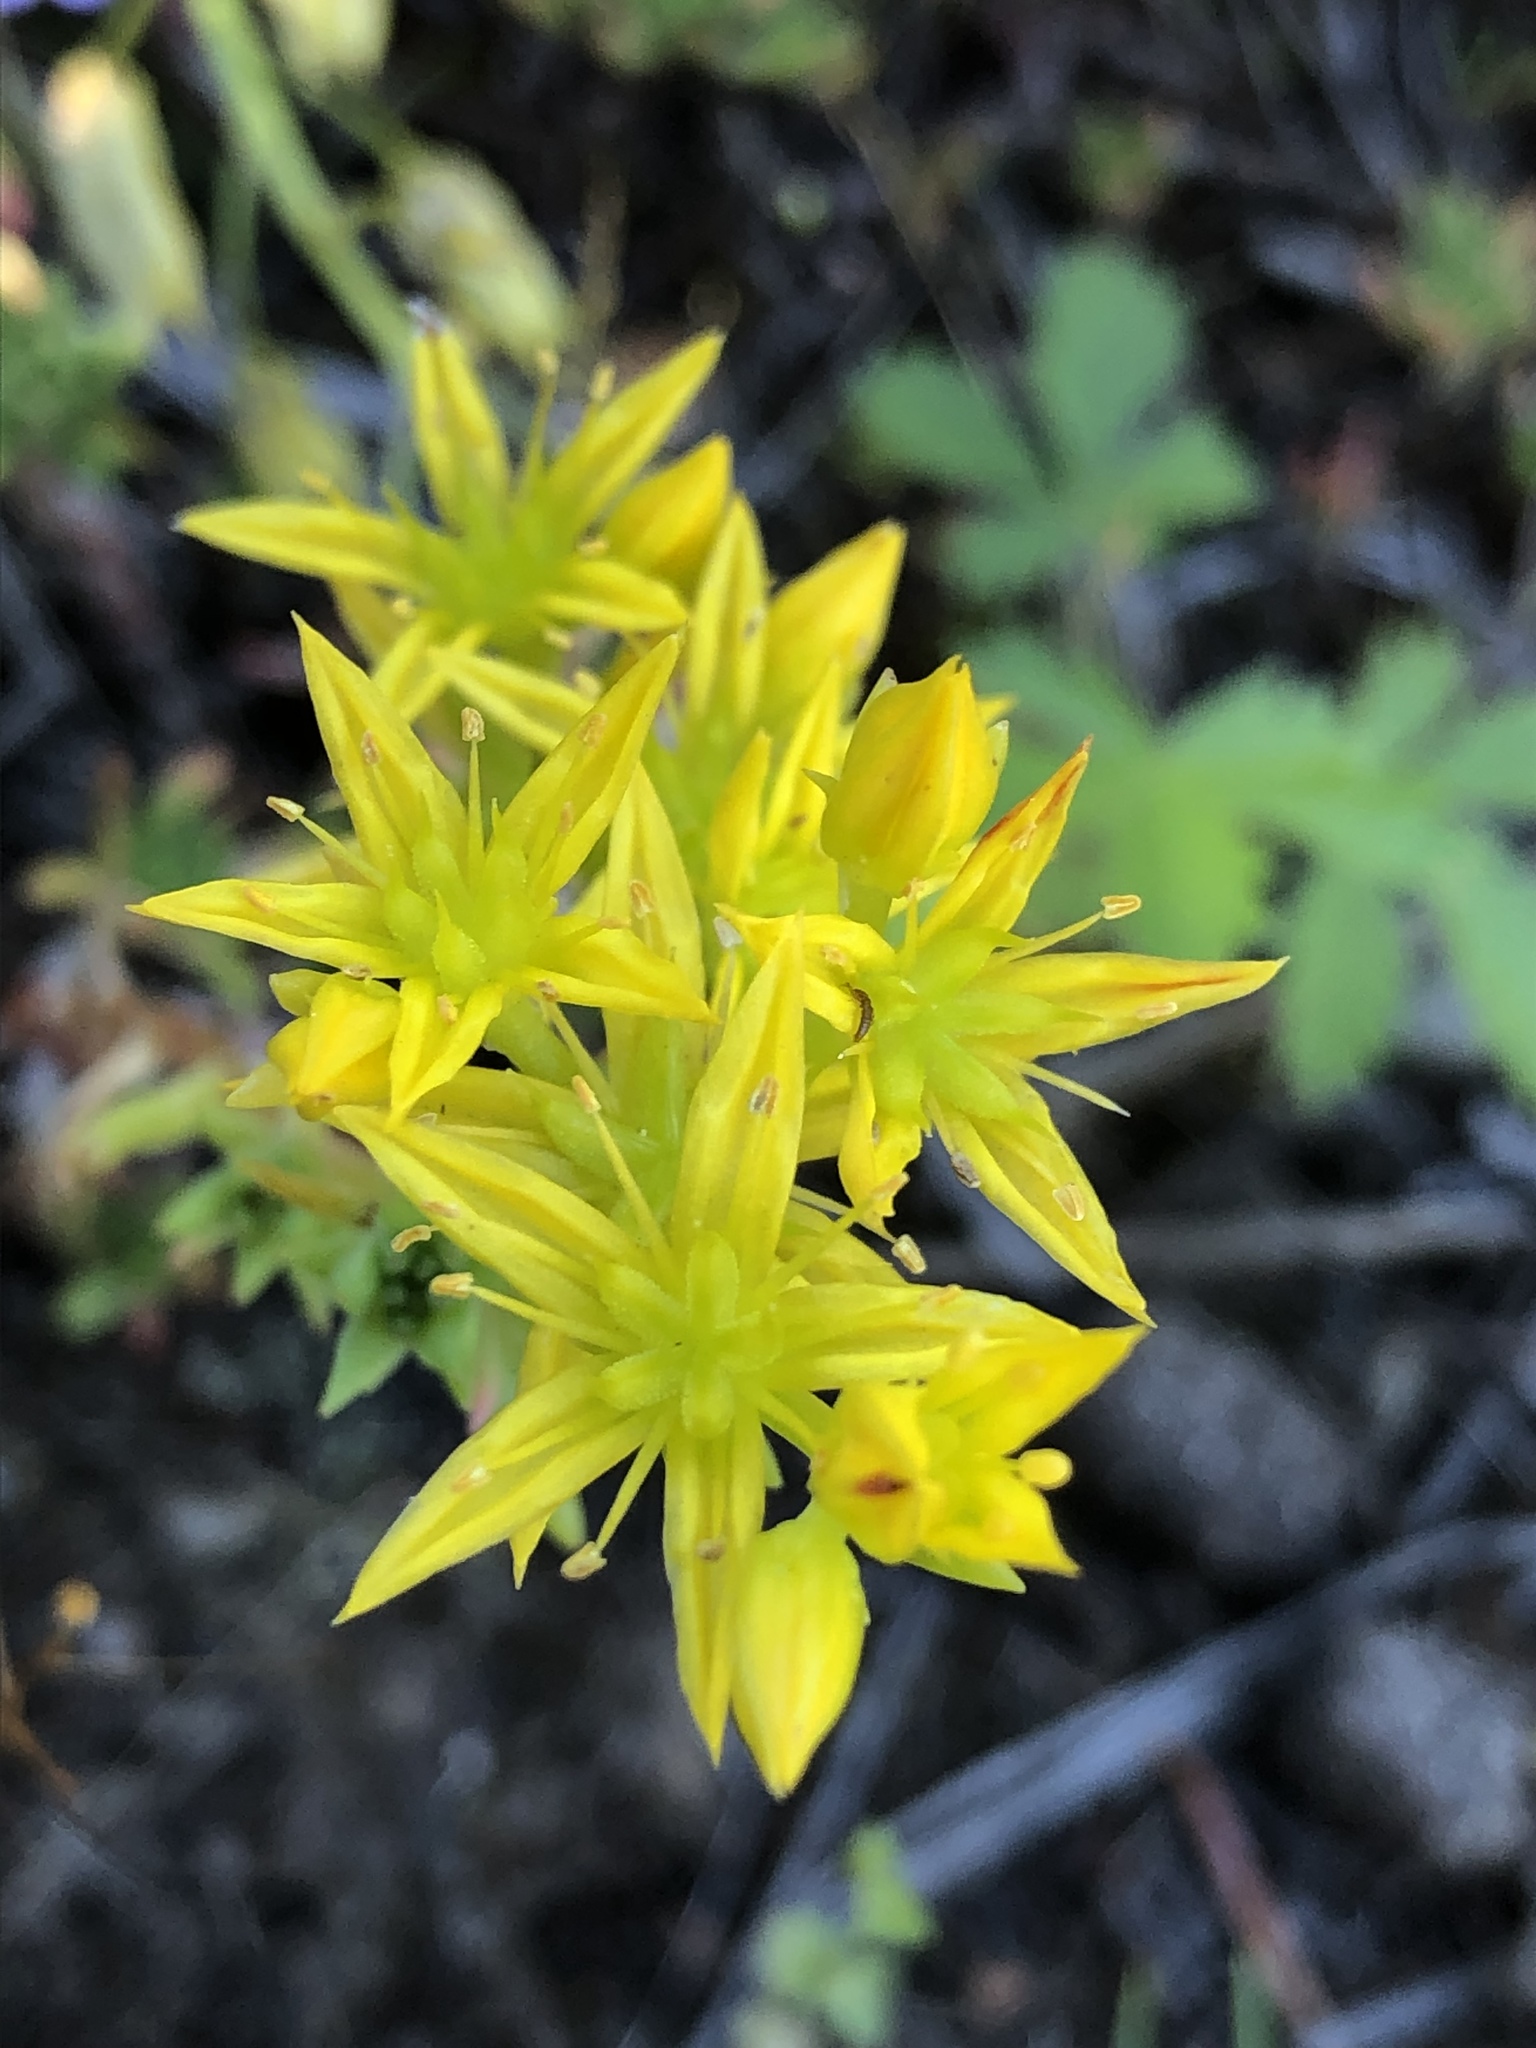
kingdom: Plantae
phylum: Tracheophyta
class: Magnoliopsida
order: Saxifragales
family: Crassulaceae
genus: Sedum
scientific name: Sedum stenopetalum
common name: Narrow-petaled stonecrop
